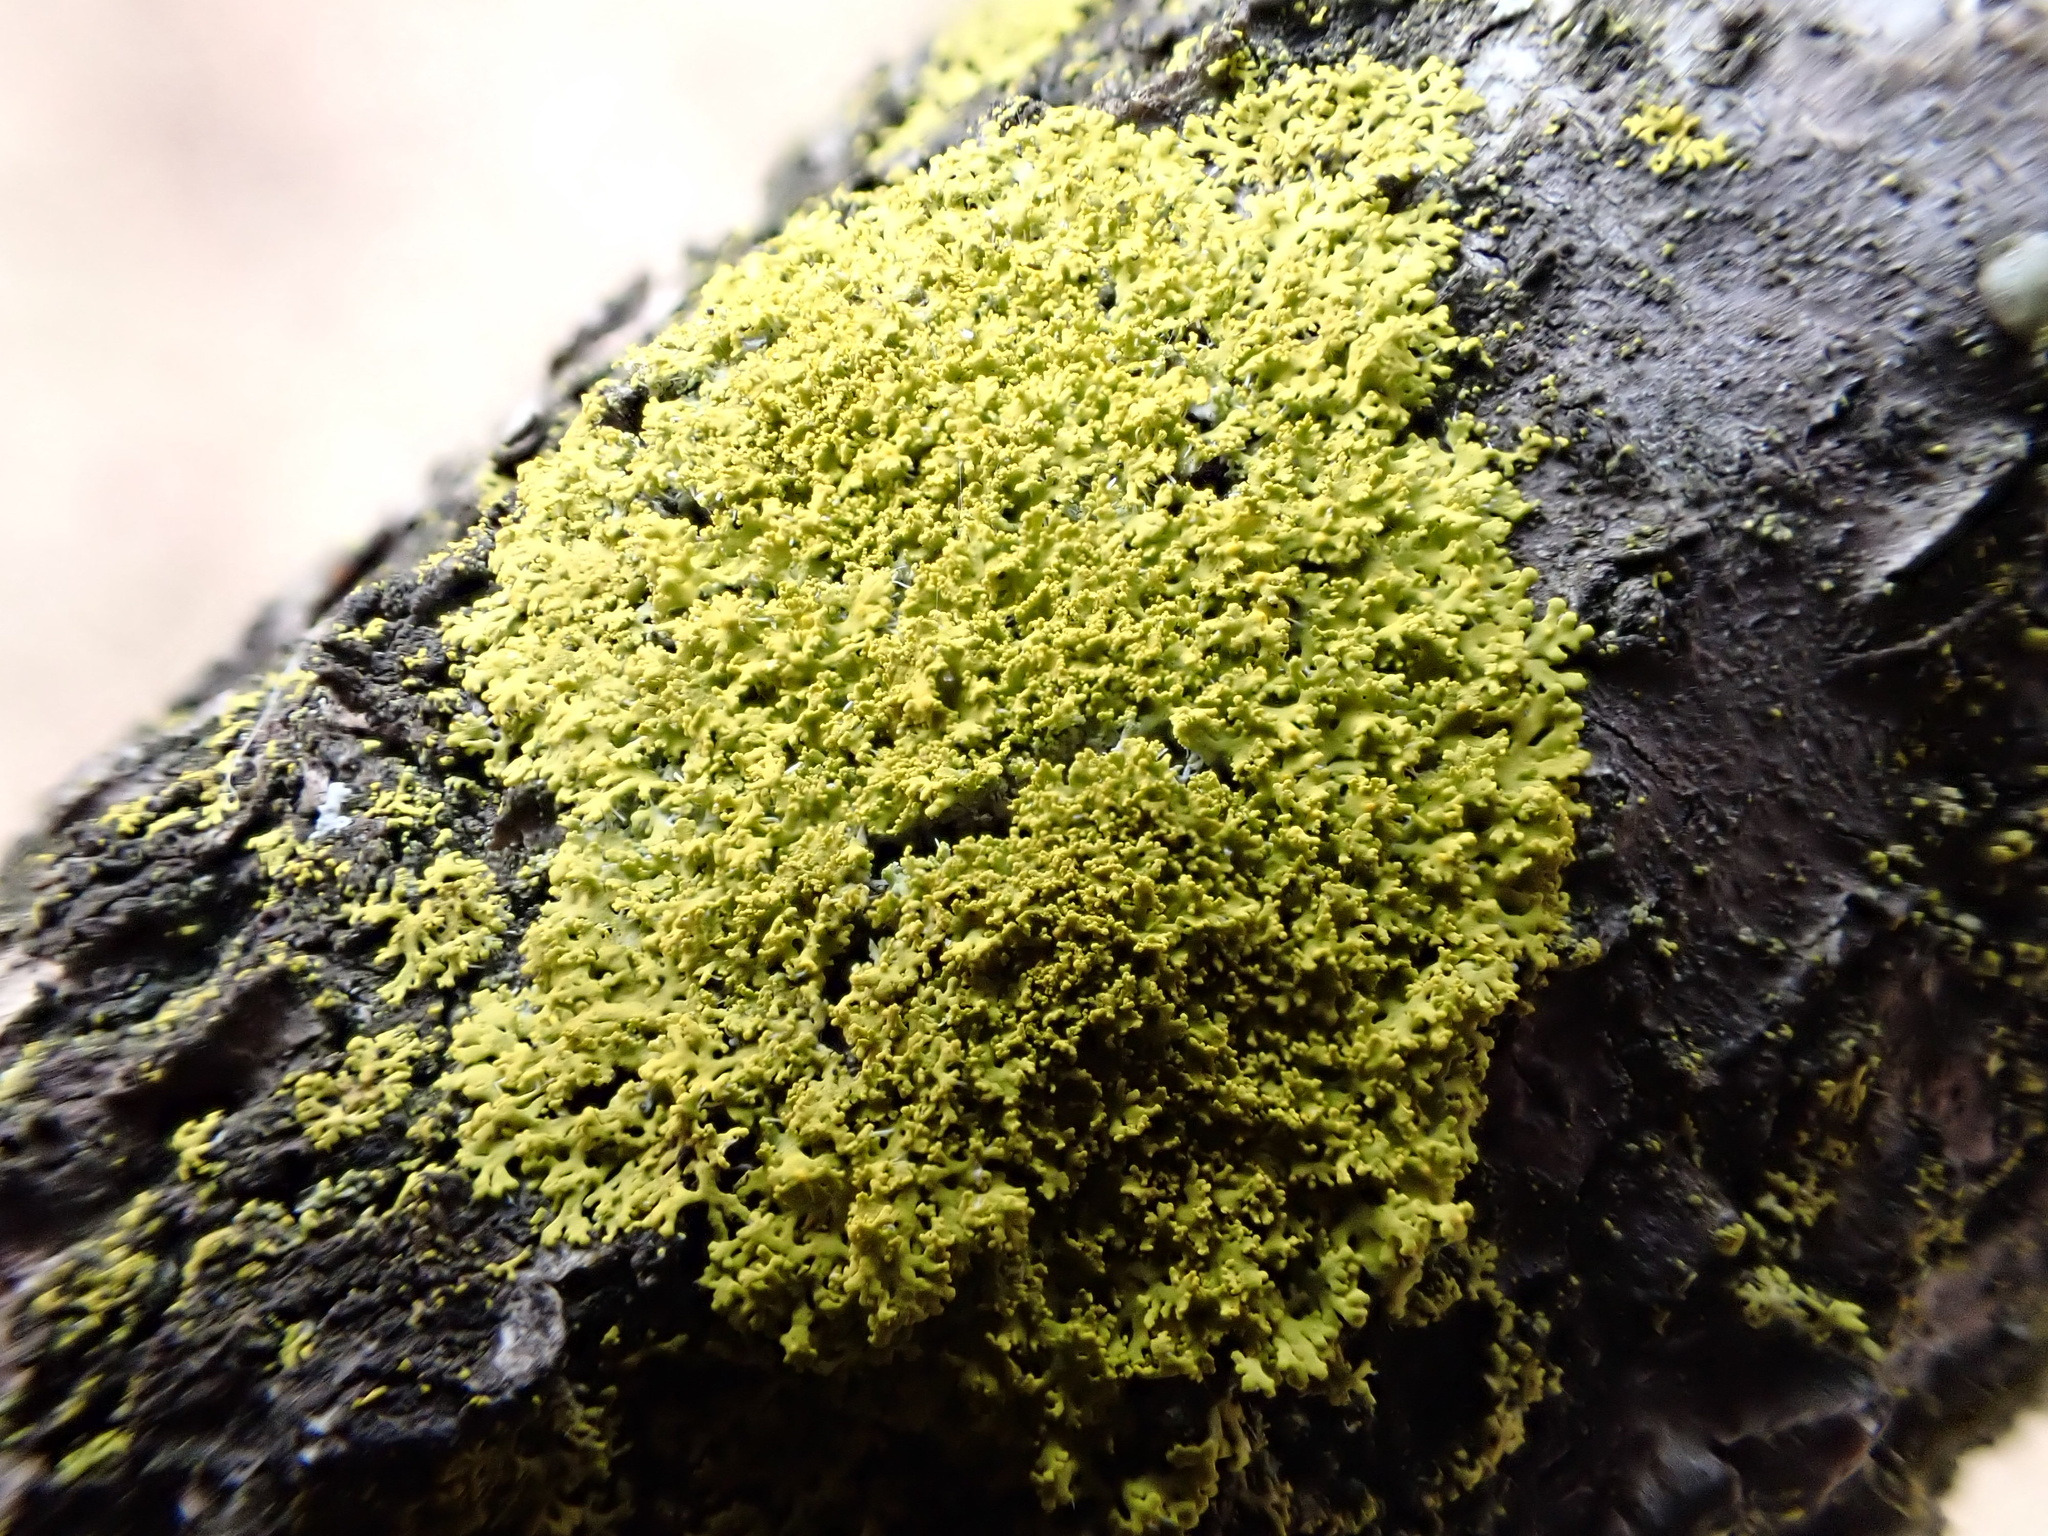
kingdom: Fungi
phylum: Ascomycota
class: Candelariomycetes
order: Candelariales
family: Candelariaceae
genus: Candelaria
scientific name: Candelaria concolor
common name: Candleflame lichen
